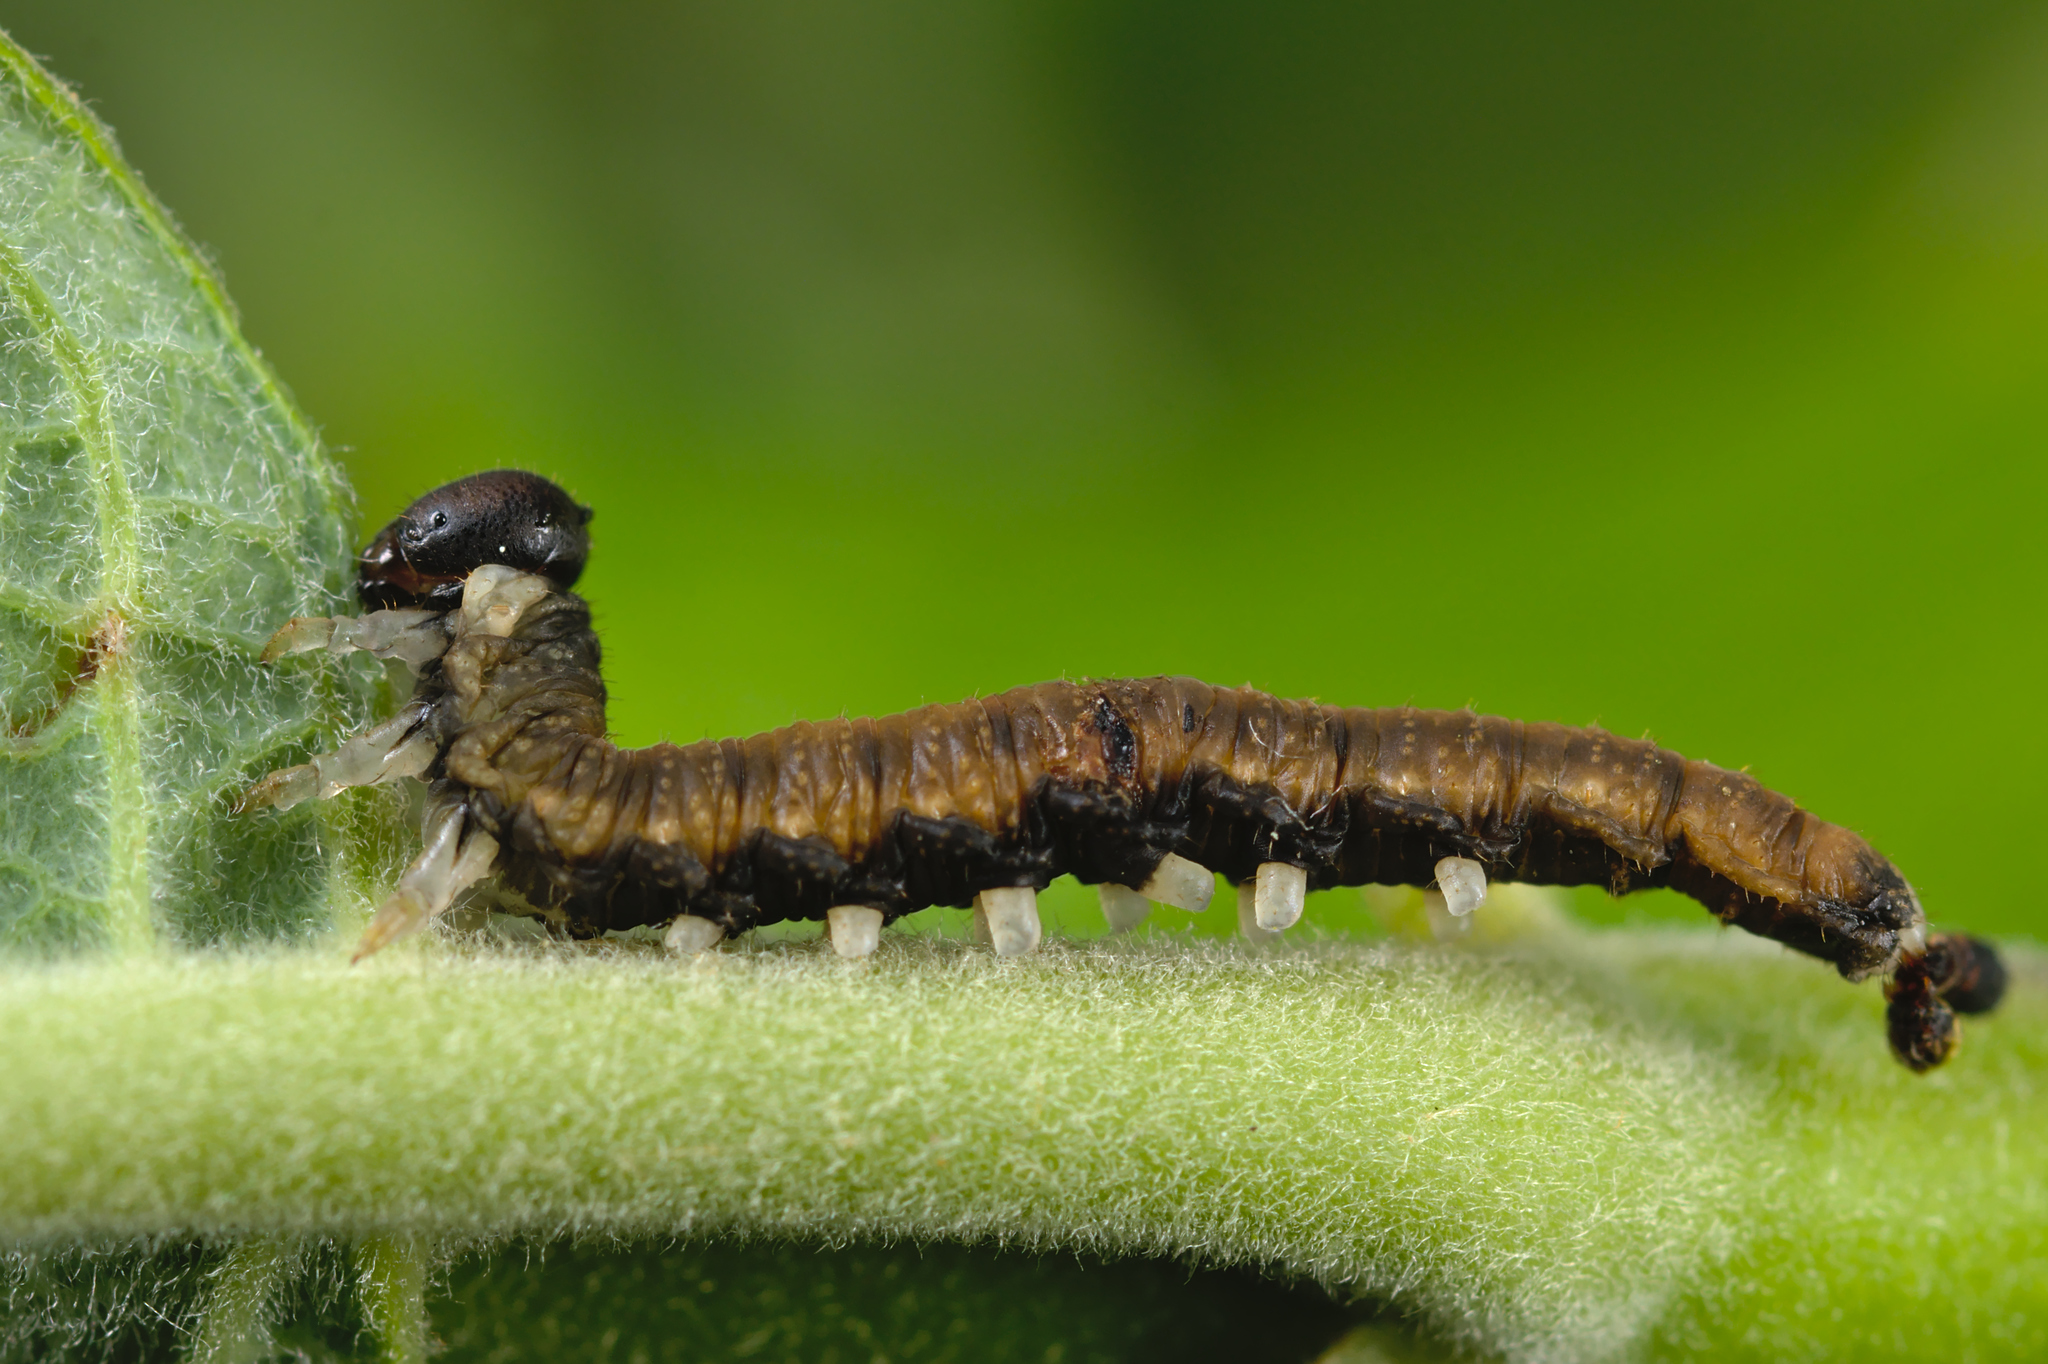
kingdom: Animalia
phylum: Arthropoda
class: Insecta
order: Hymenoptera
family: Tenthredinidae
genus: Amauronematus
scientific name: Amauronematus puniceus
